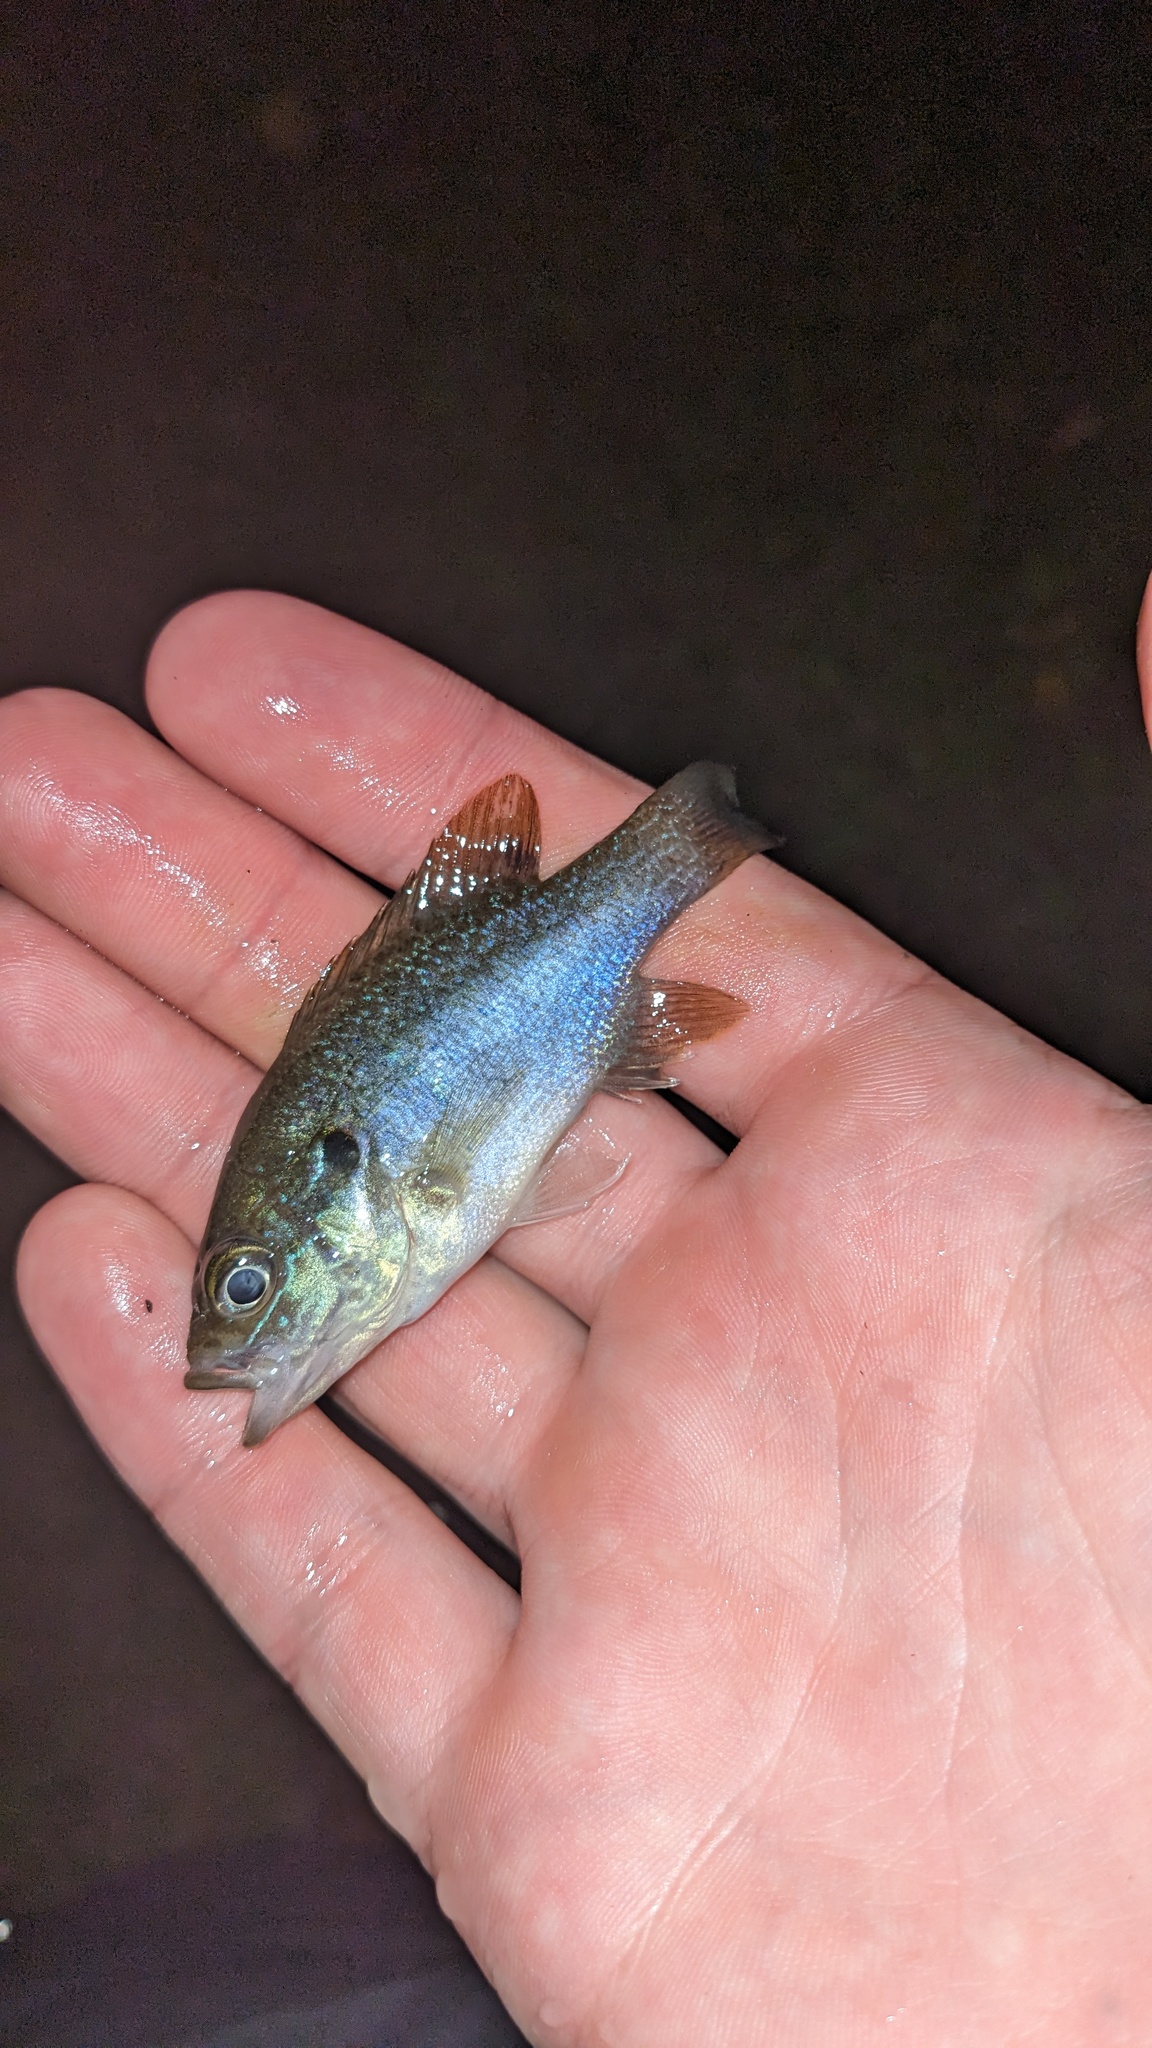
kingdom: Animalia
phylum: Chordata
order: Perciformes
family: Centrarchidae
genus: Lepomis
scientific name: Lepomis cyanellus
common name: Green sunfish
